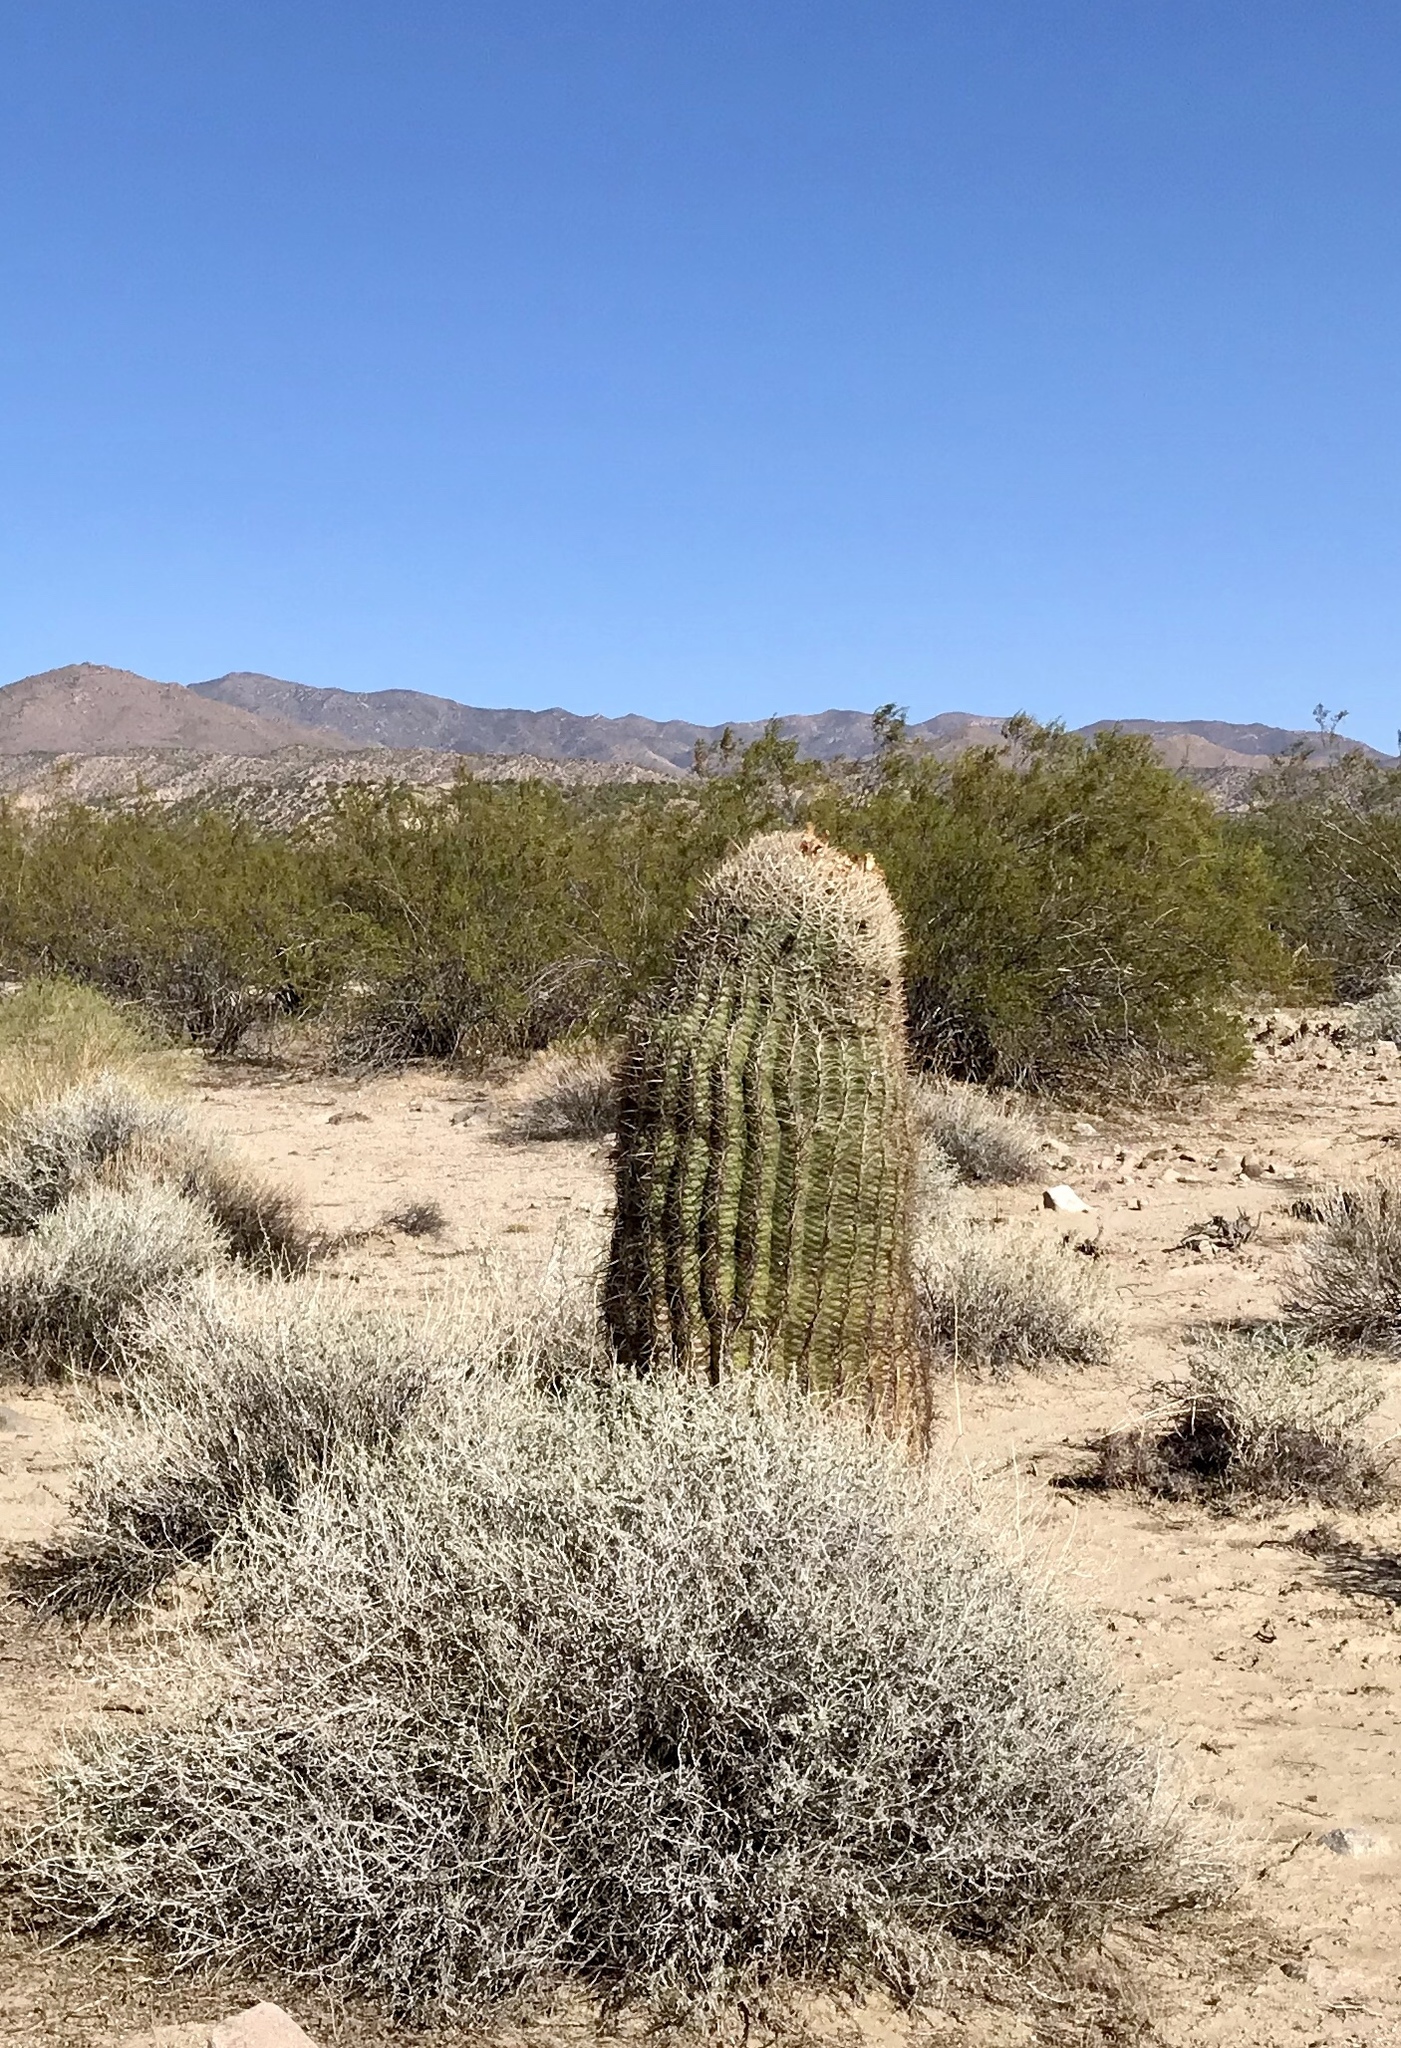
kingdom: Plantae
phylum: Tracheophyta
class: Magnoliopsida
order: Caryophyllales
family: Cactaceae
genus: Ferocactus
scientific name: Ferocactus cylindraceus
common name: California barrel cactus
